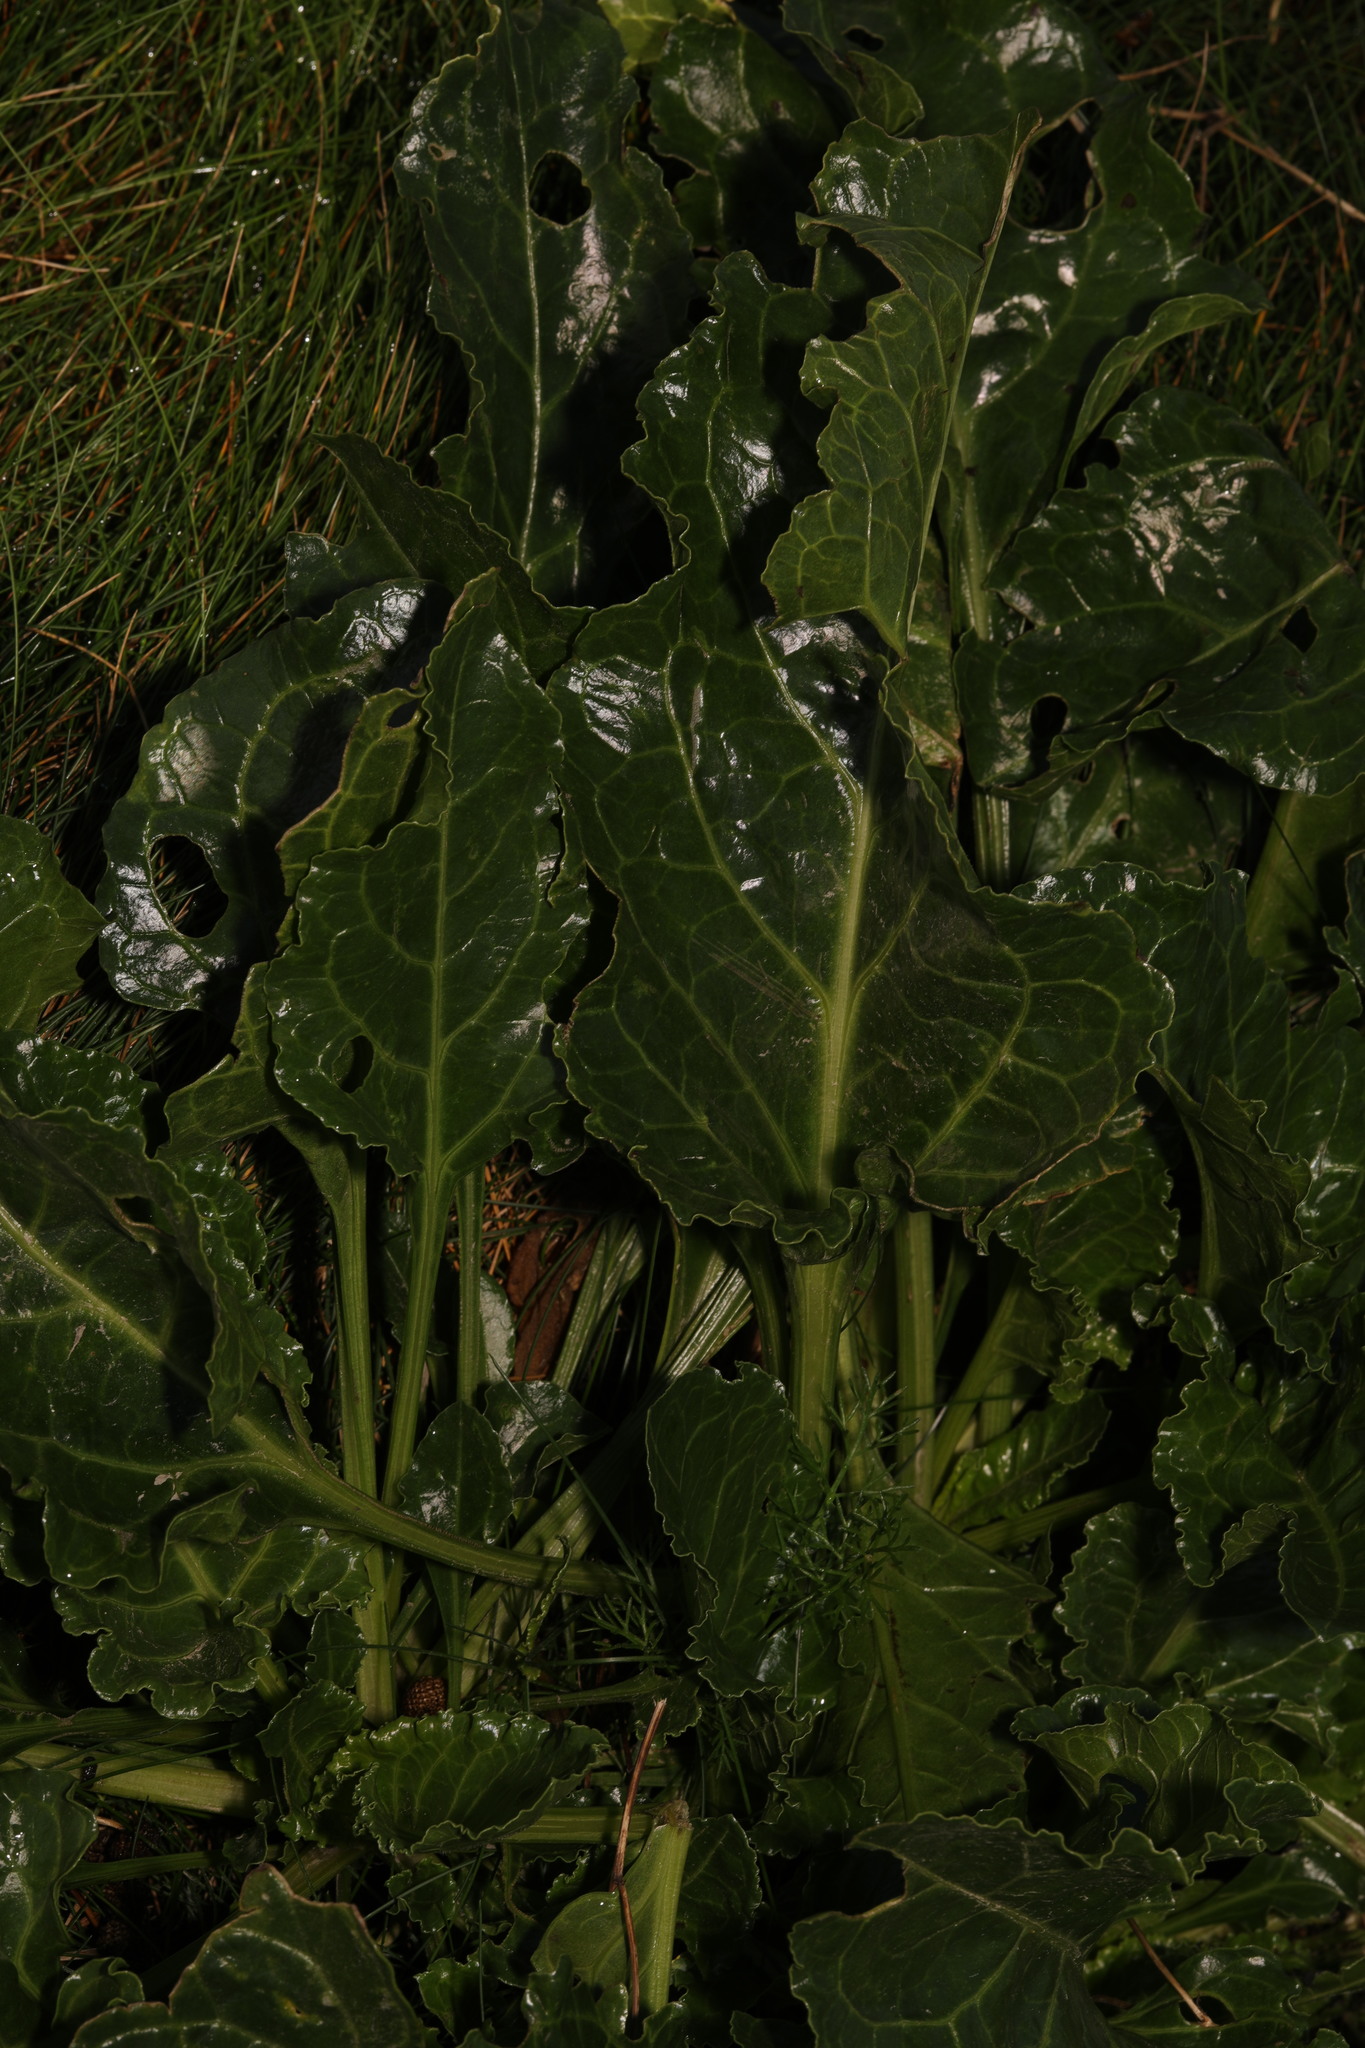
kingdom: Plantae
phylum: Tracheophyta
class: Magnoliopsida
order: Caryophyllales
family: Amaranthaceae
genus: Beta
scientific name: Beta vulgaris
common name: Beet
